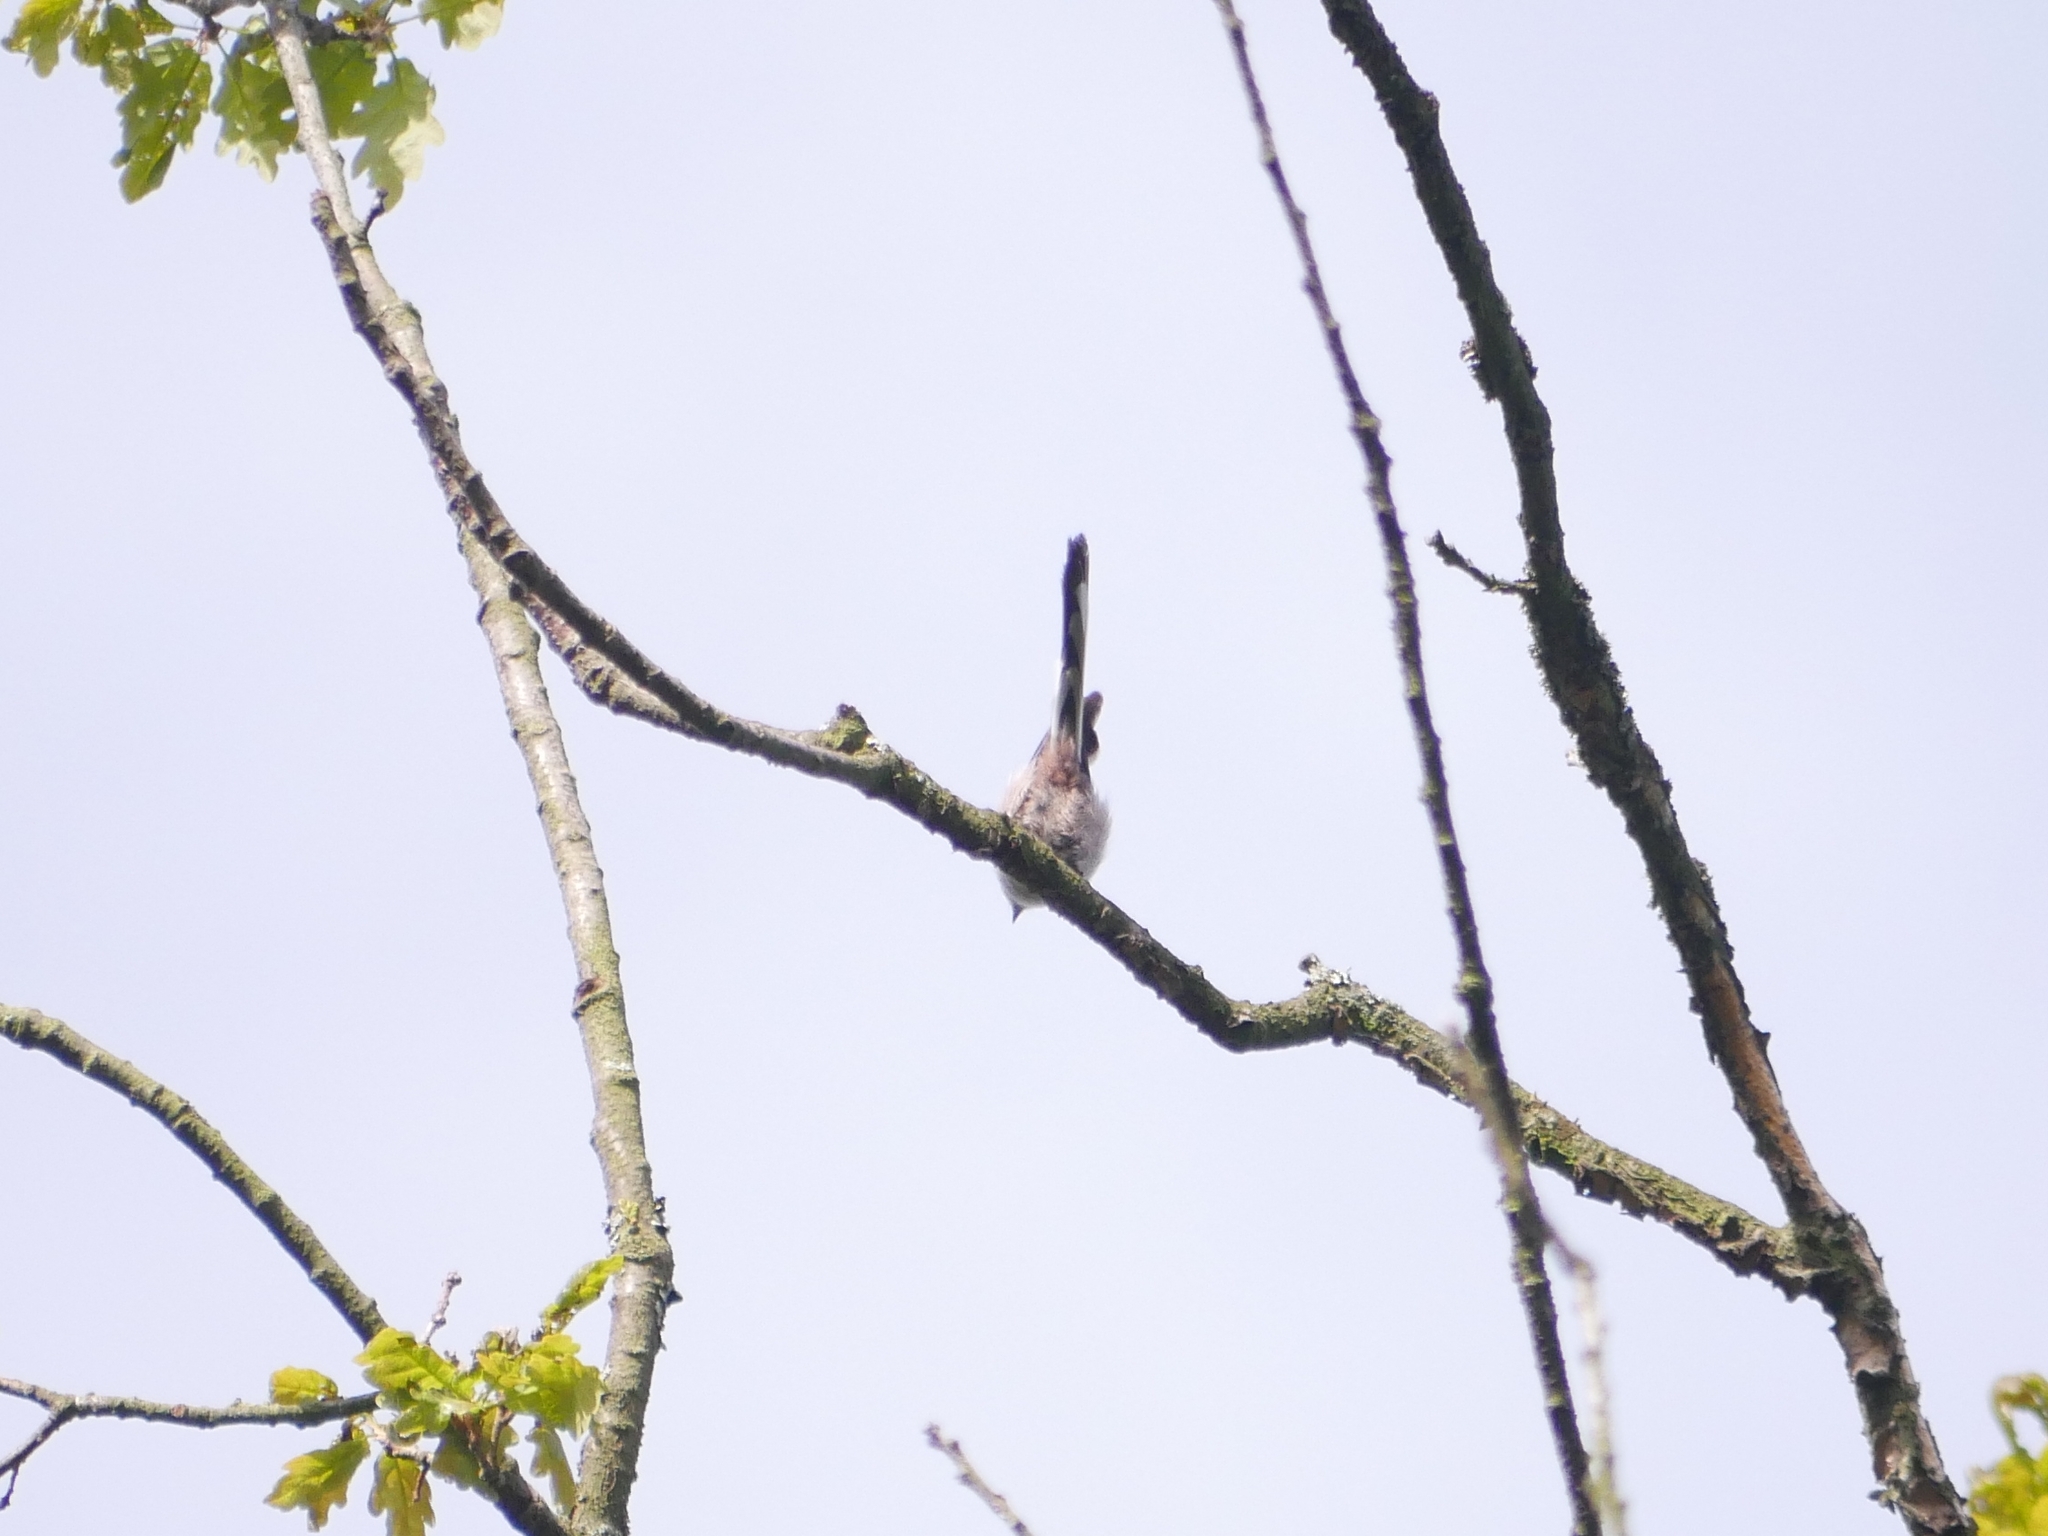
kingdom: Animalia
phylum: Chordata
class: Aves
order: Passeriformes
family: Aegithalidae
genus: Aegithalos
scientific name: Aegithalos caudatus
